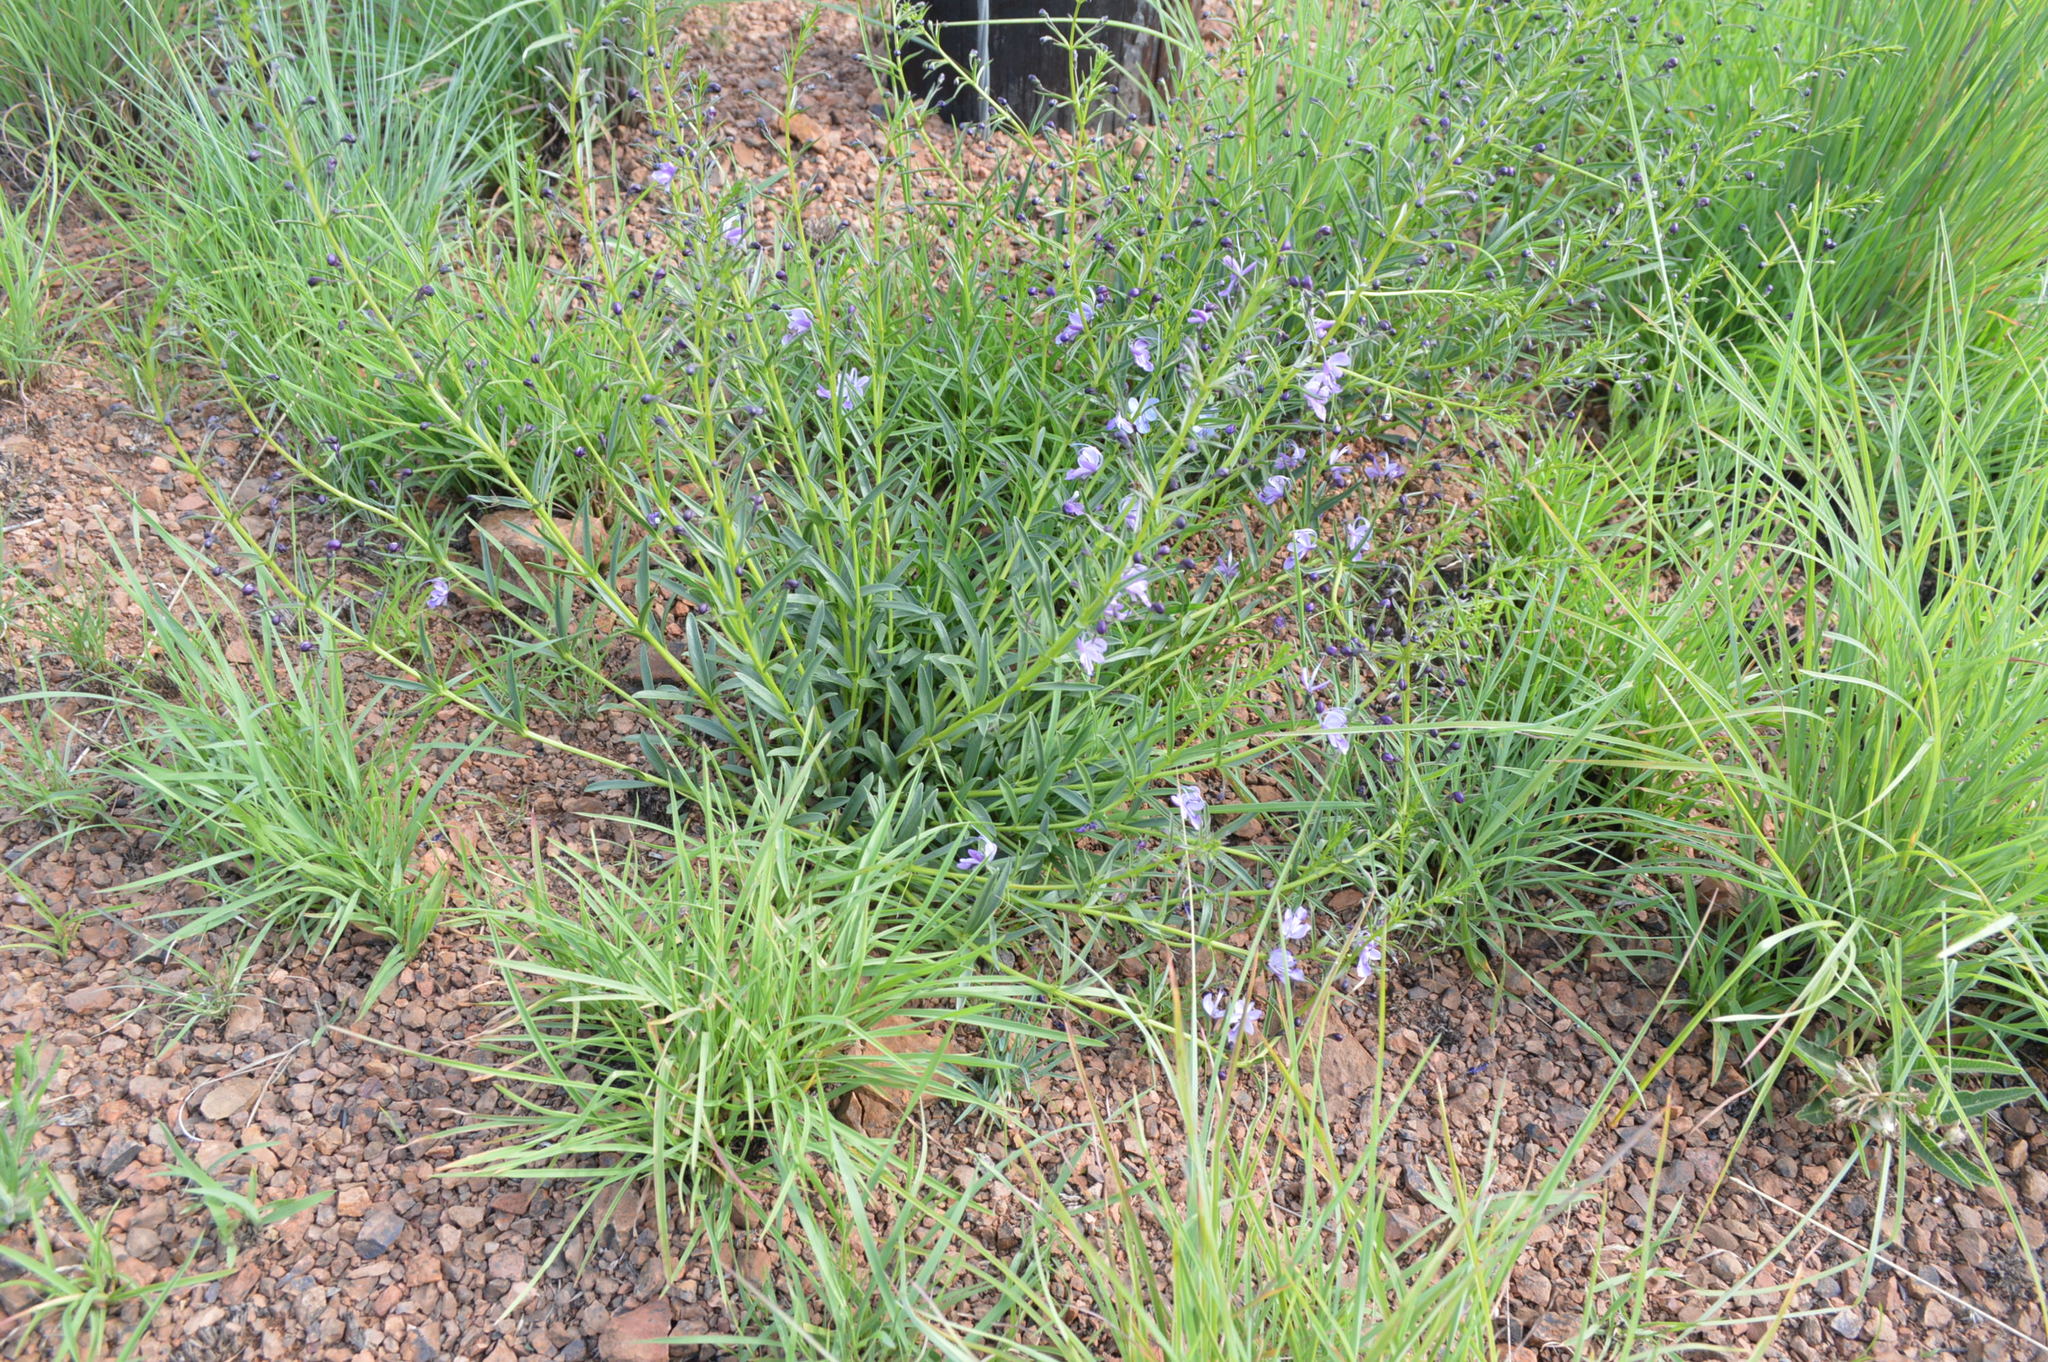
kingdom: Plantae
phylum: Tracheophyta
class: Magnoliopsida
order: Lamiales
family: Lamiaceae
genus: Rotheca
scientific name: Rotheca hirsuta
